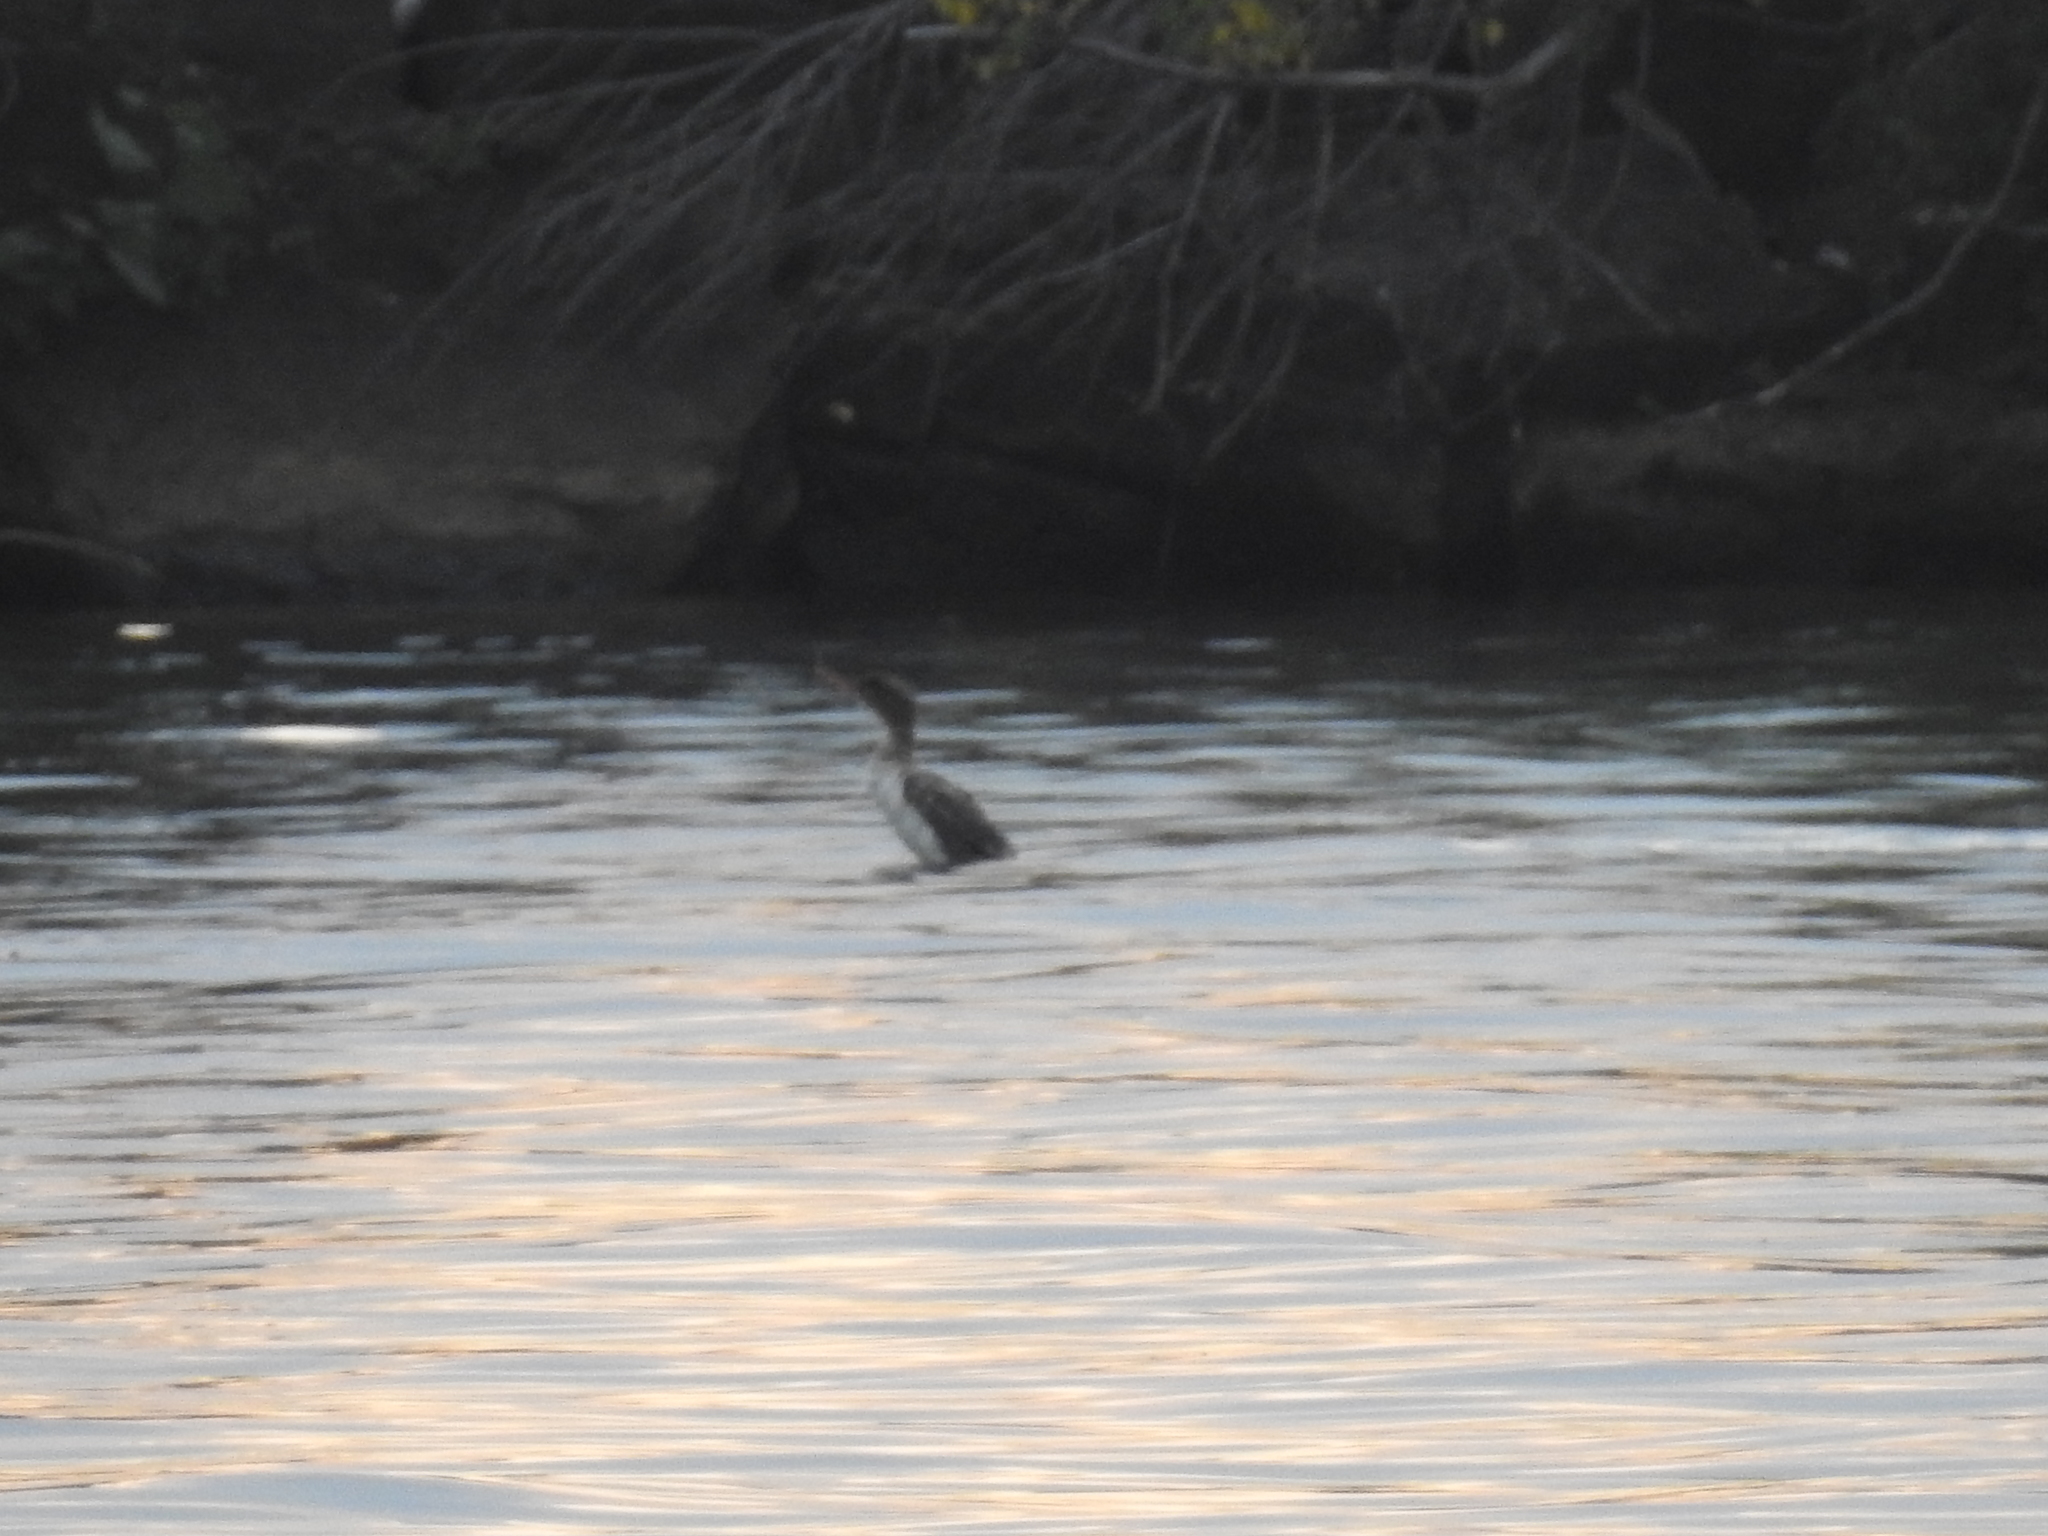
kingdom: Animalia
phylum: Chordata
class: Aves
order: Anseriformes
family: Anatidae
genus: Mergus
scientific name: Mergus serrator
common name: Red-breasted merganser
